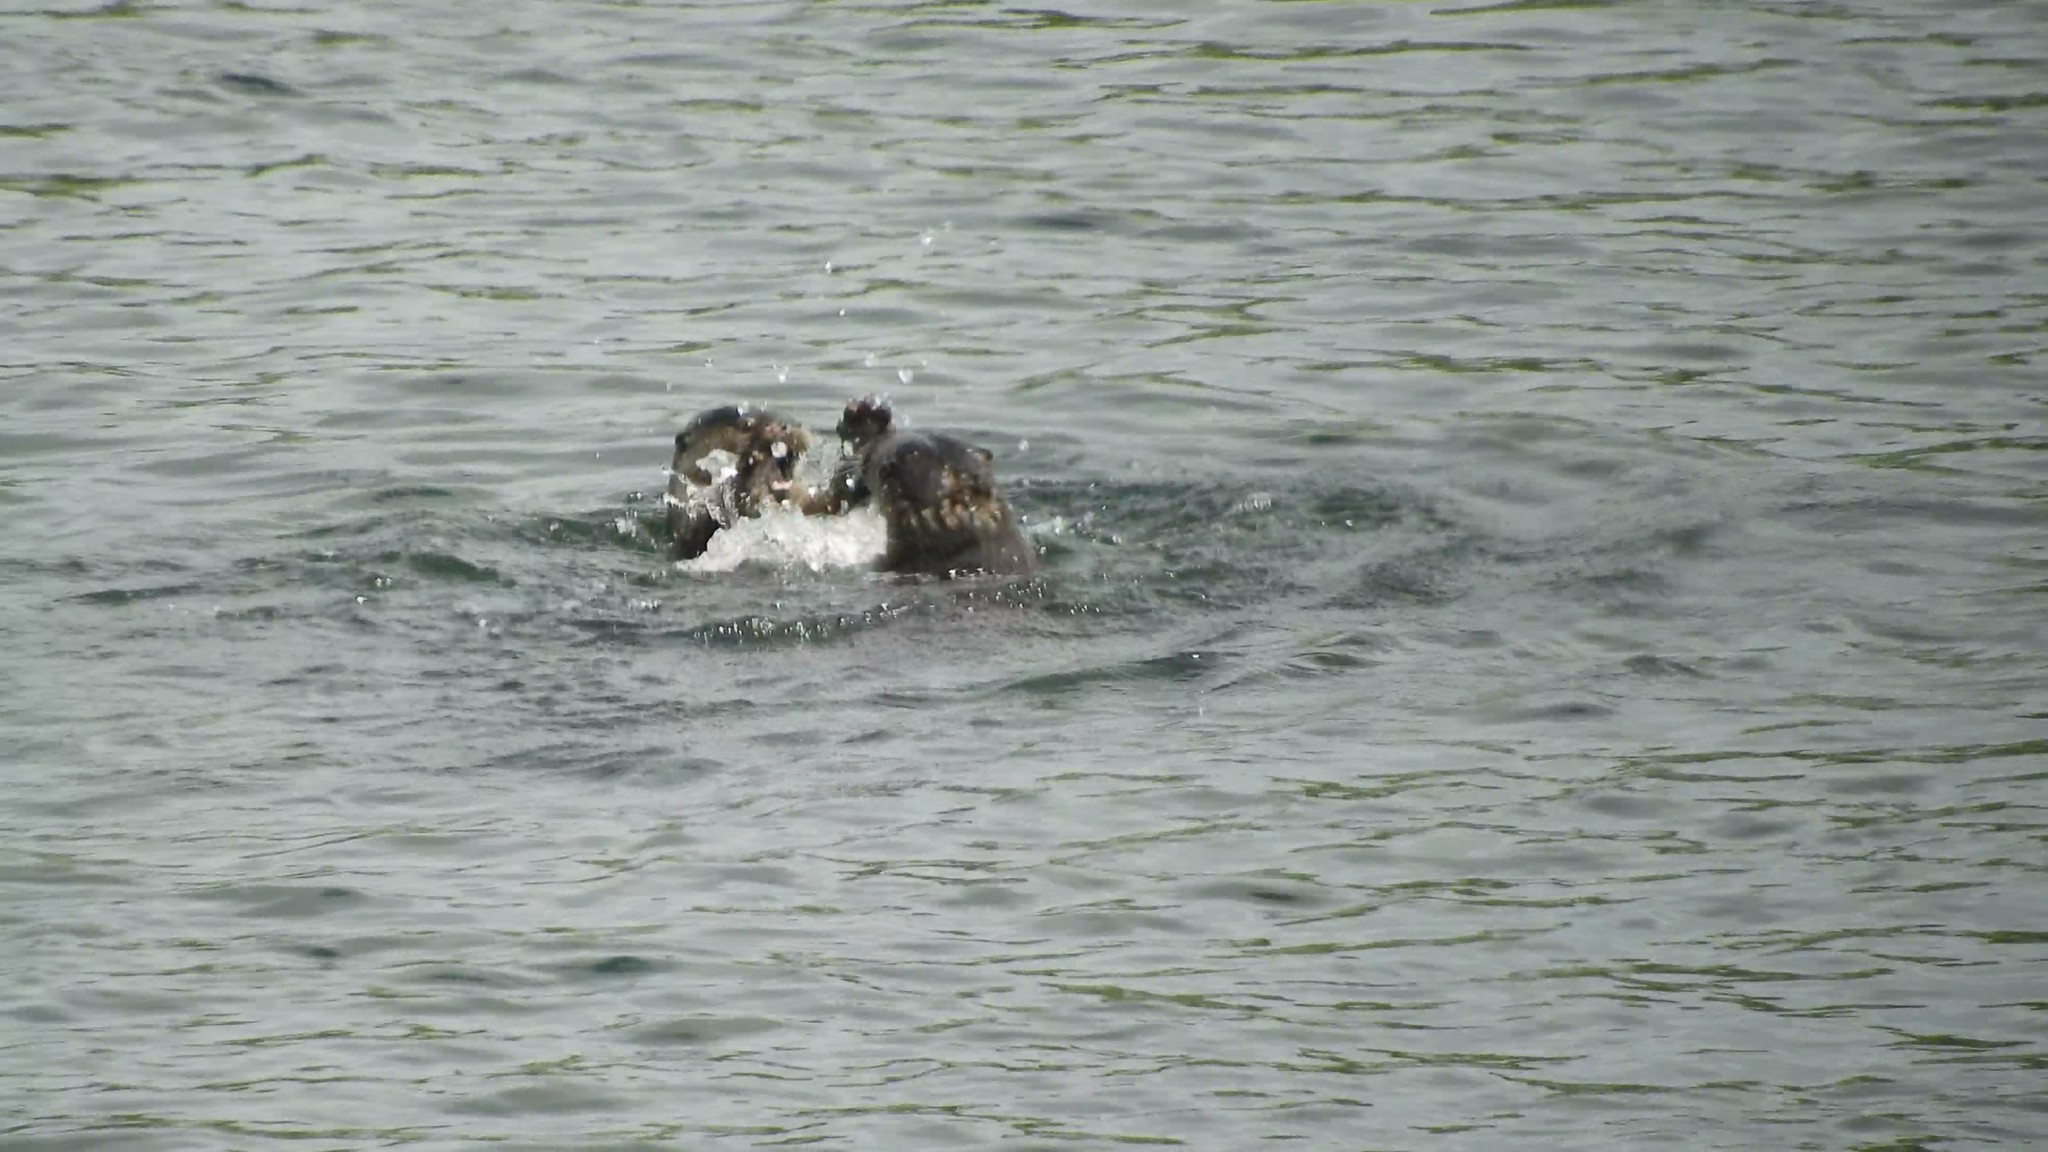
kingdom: Animalia
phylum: Chordata
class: Mammalia
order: Carnivora
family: Mustelidae
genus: Lontra
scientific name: Lontra canadensis
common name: North american river otter
